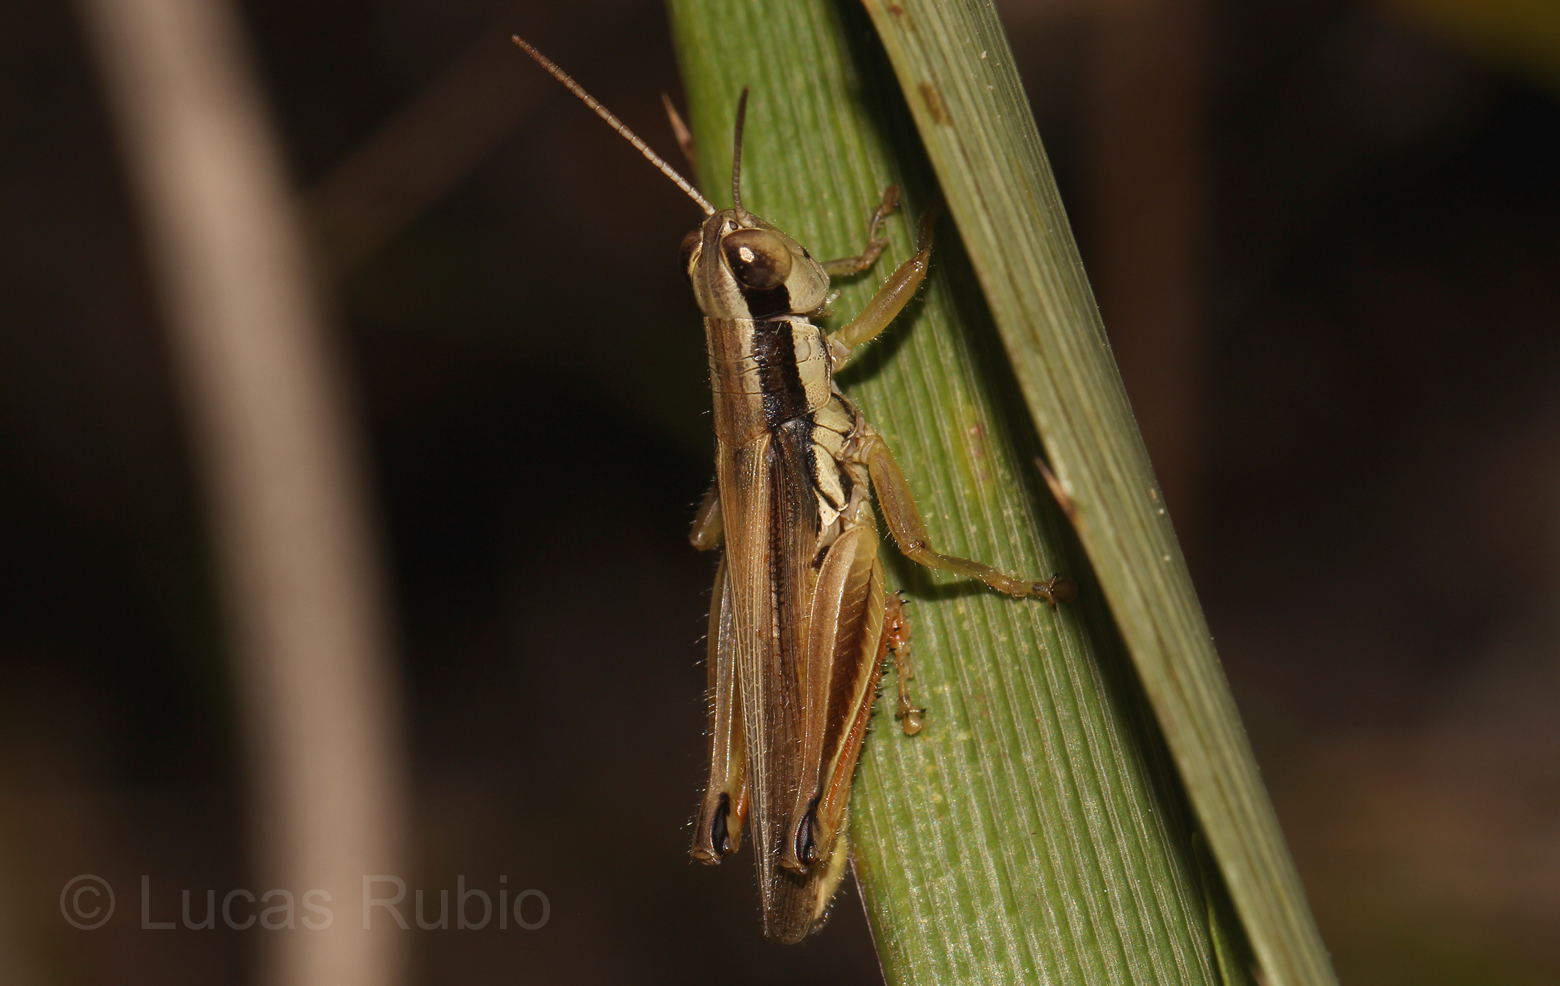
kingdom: Animalia
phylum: Arthropoda
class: Insecta
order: Orthoptera
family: Acrididae
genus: Scotussa
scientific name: Scotussa lemniscata
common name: Slender orange-legged grasshopper
